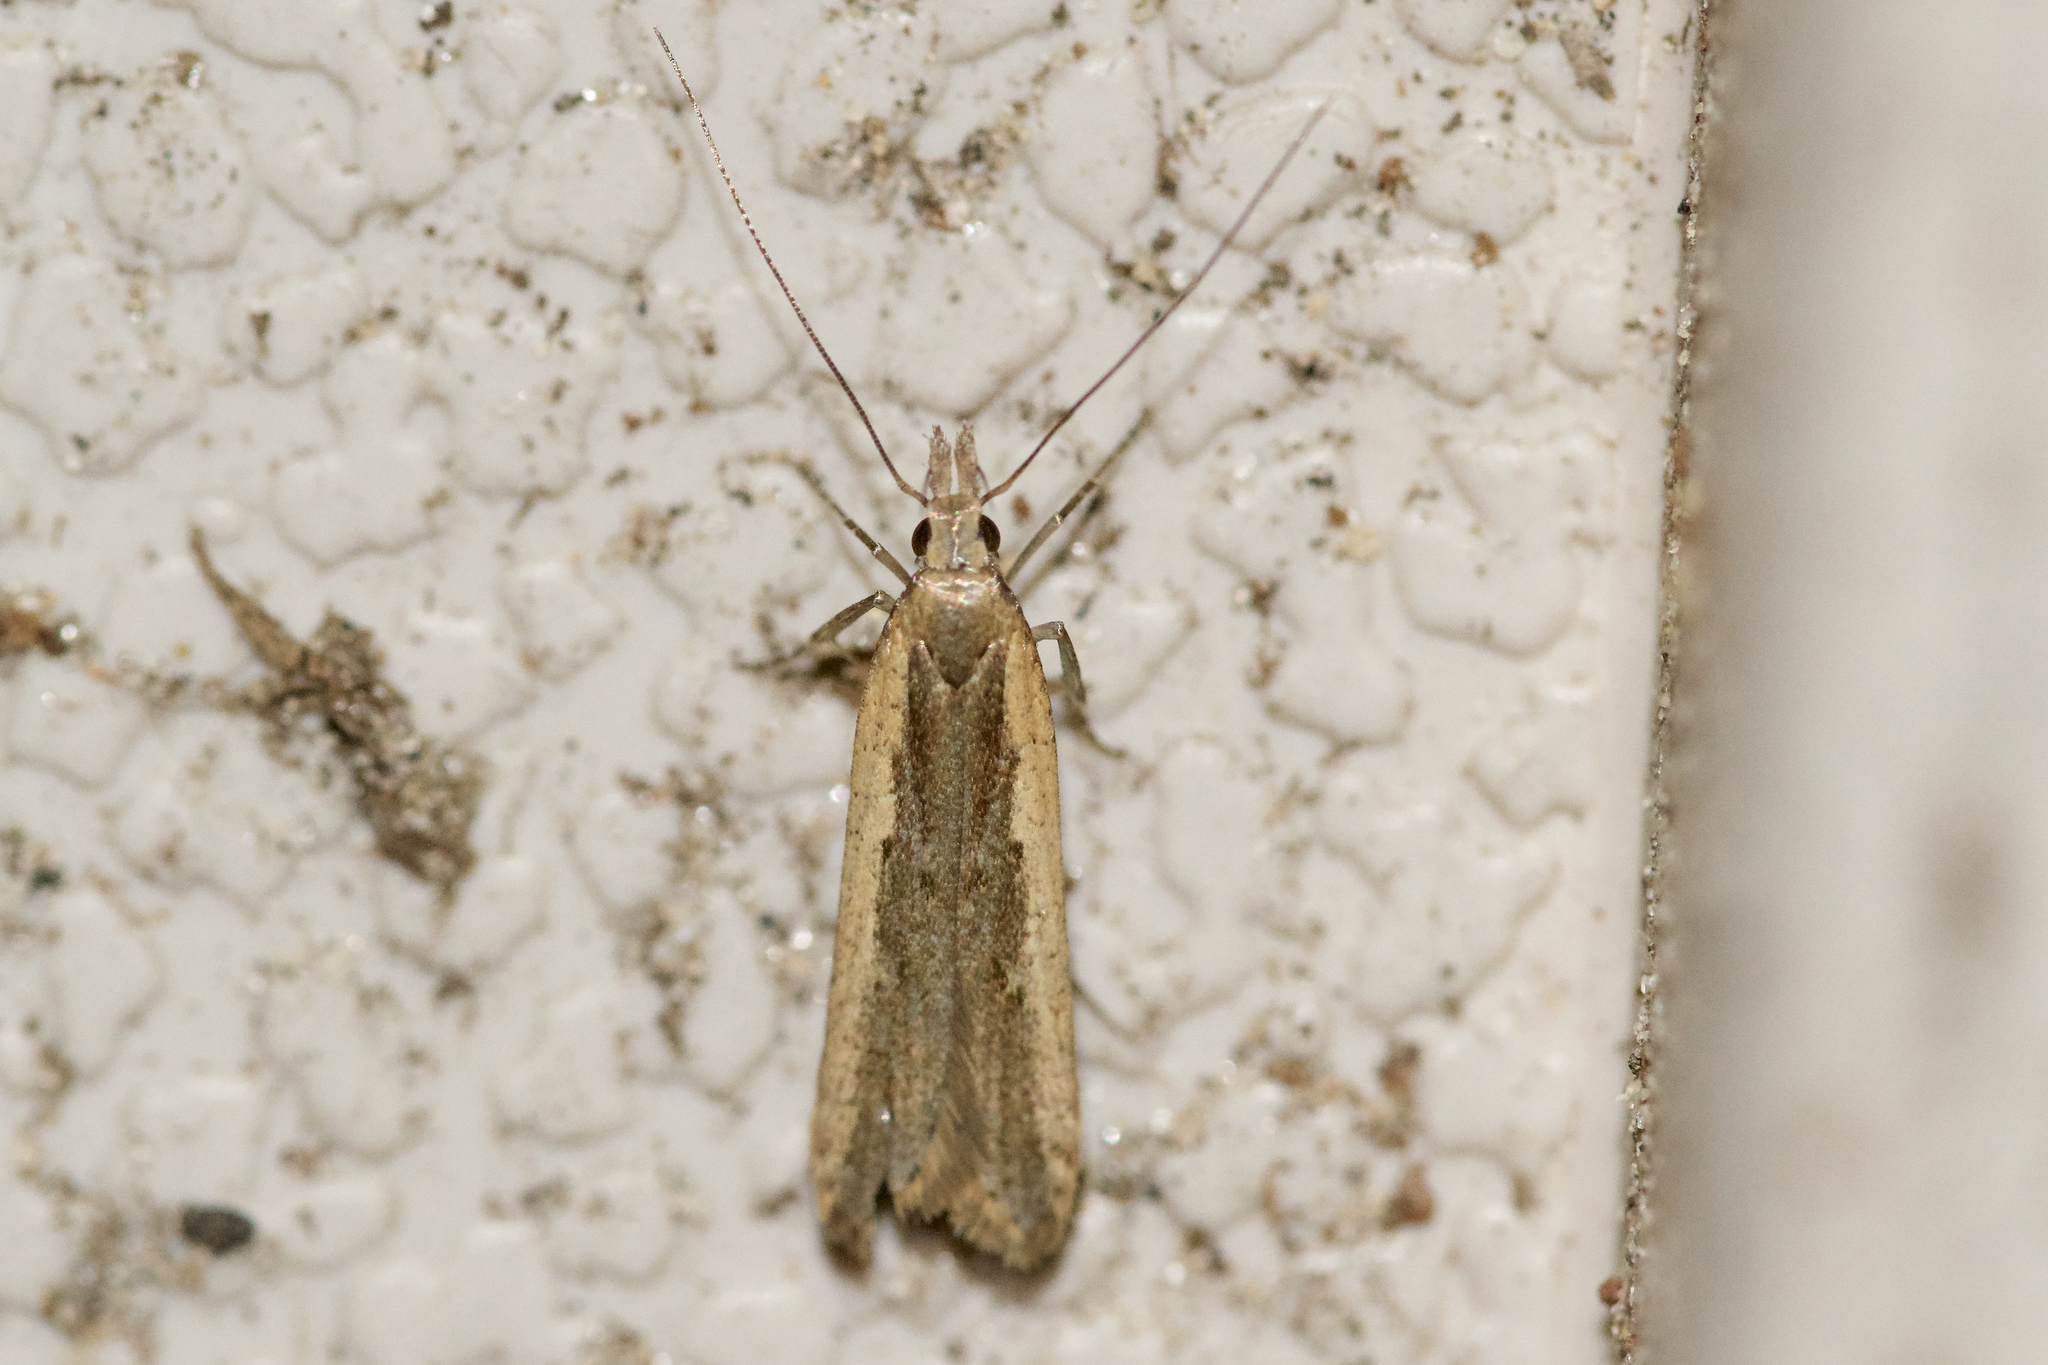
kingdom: Animalia
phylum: Arthropoda
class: Insecta
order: Lepidoptera
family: Gelechiidae
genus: Dichomeris
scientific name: Dichomeris ligulella
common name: Moth
